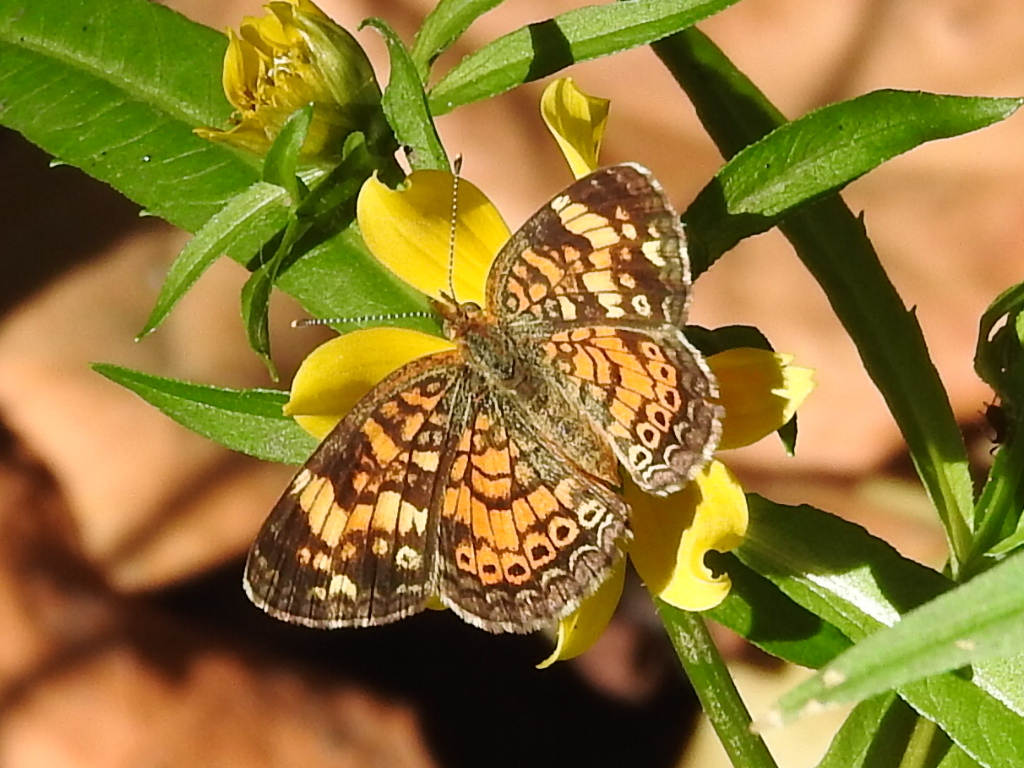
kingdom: Animalia
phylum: Arthropoda
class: Insecta
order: Lepidoptera
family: Nymphalidae
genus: Phyciodes
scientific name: Phyciodes tharos
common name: Pearl crescent
